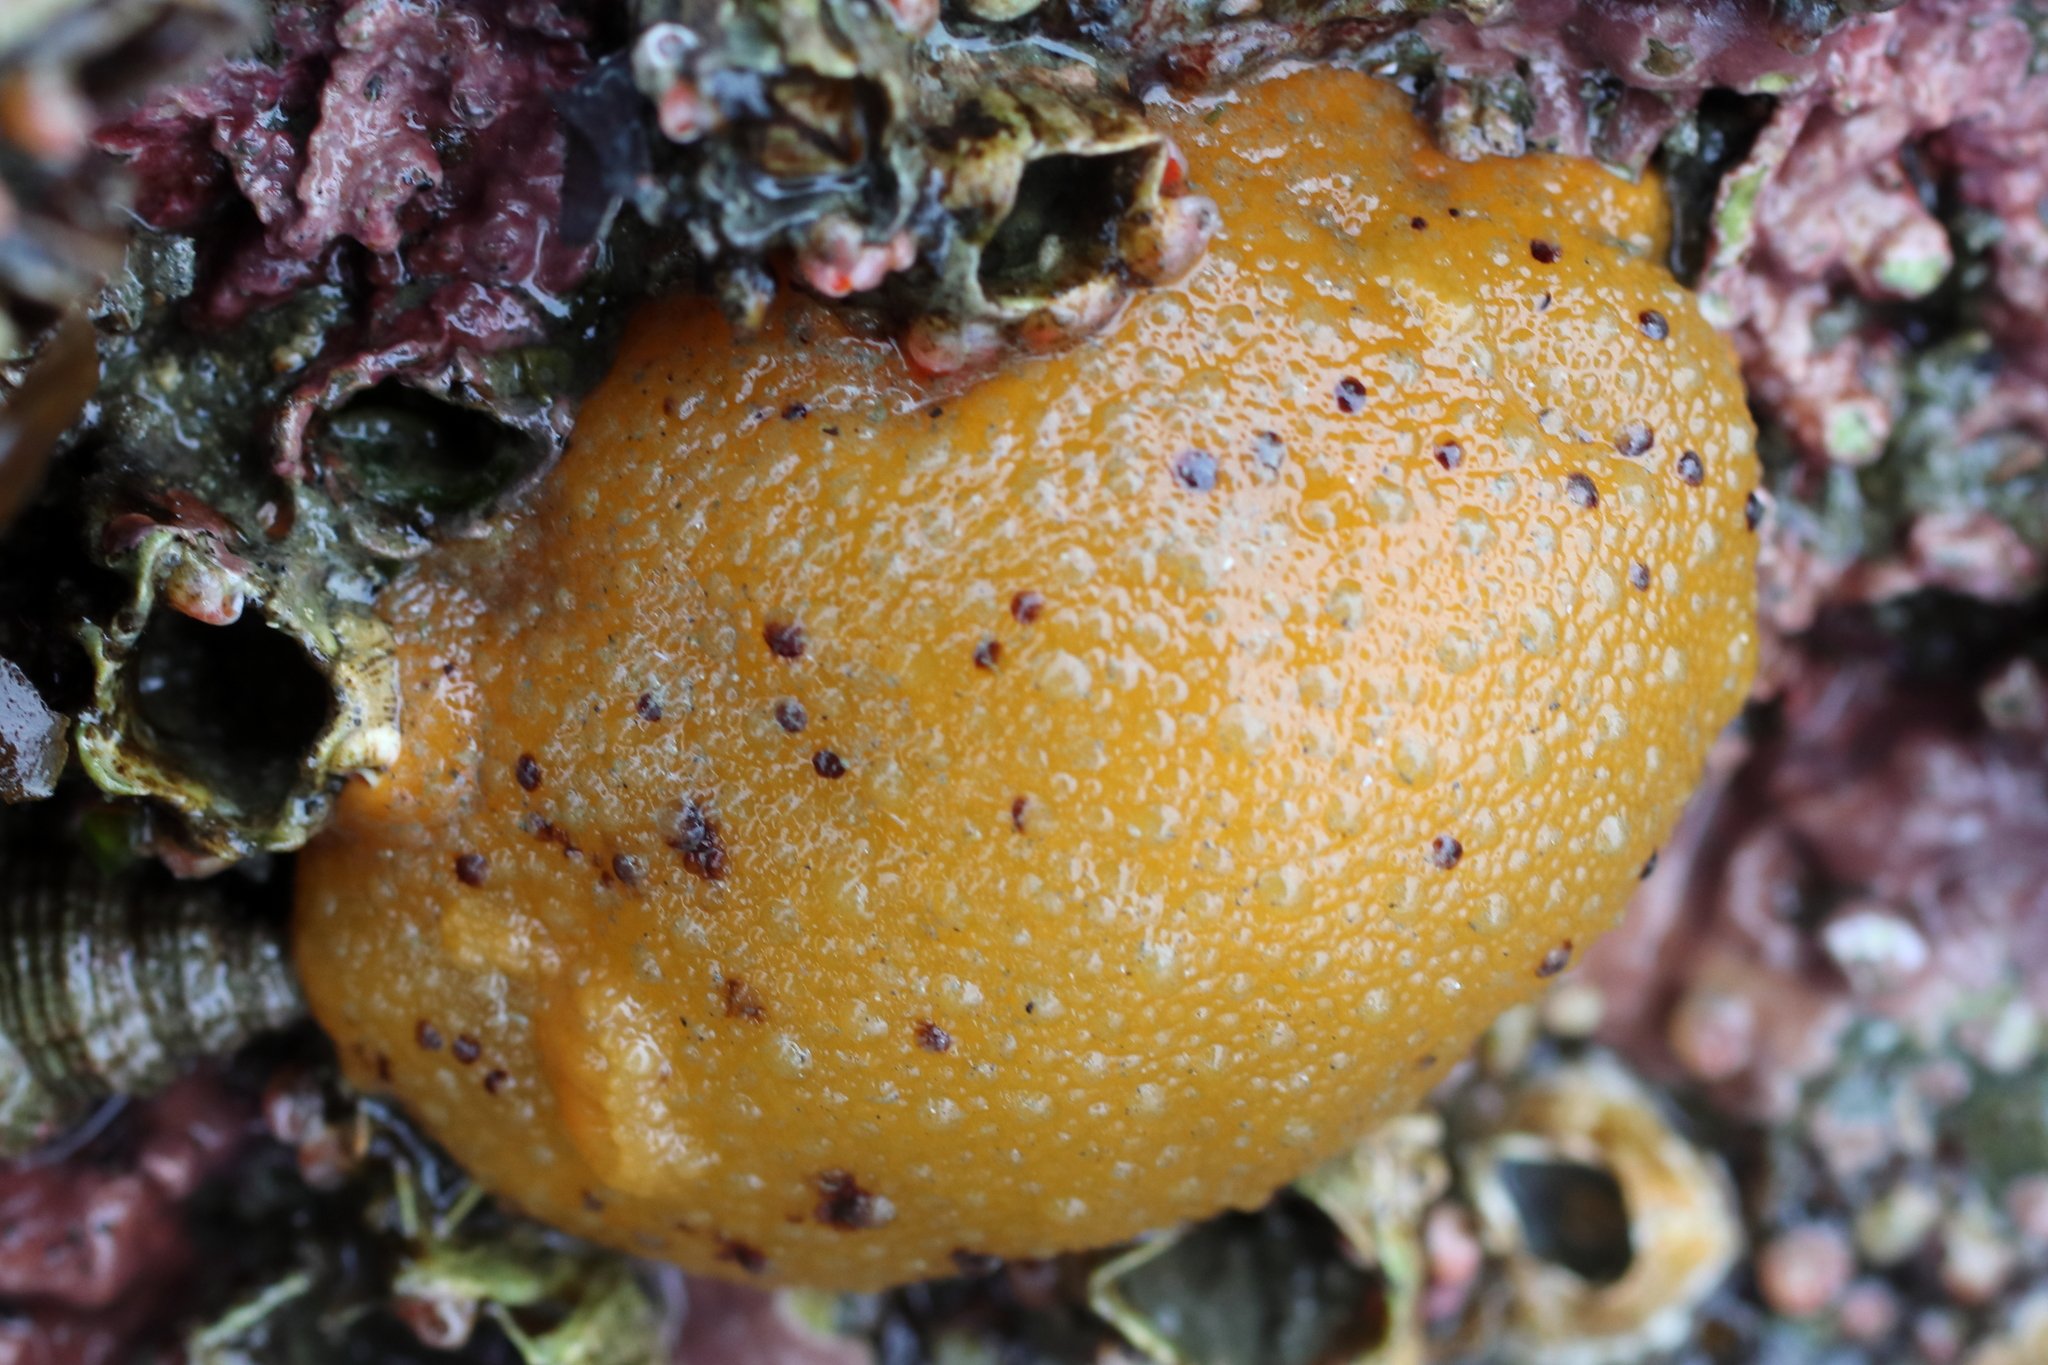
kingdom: Animalia
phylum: Mollusca
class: Gastropoda
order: Nudibranchia
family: Dorididae
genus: Doris
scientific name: Doris montereyensis
